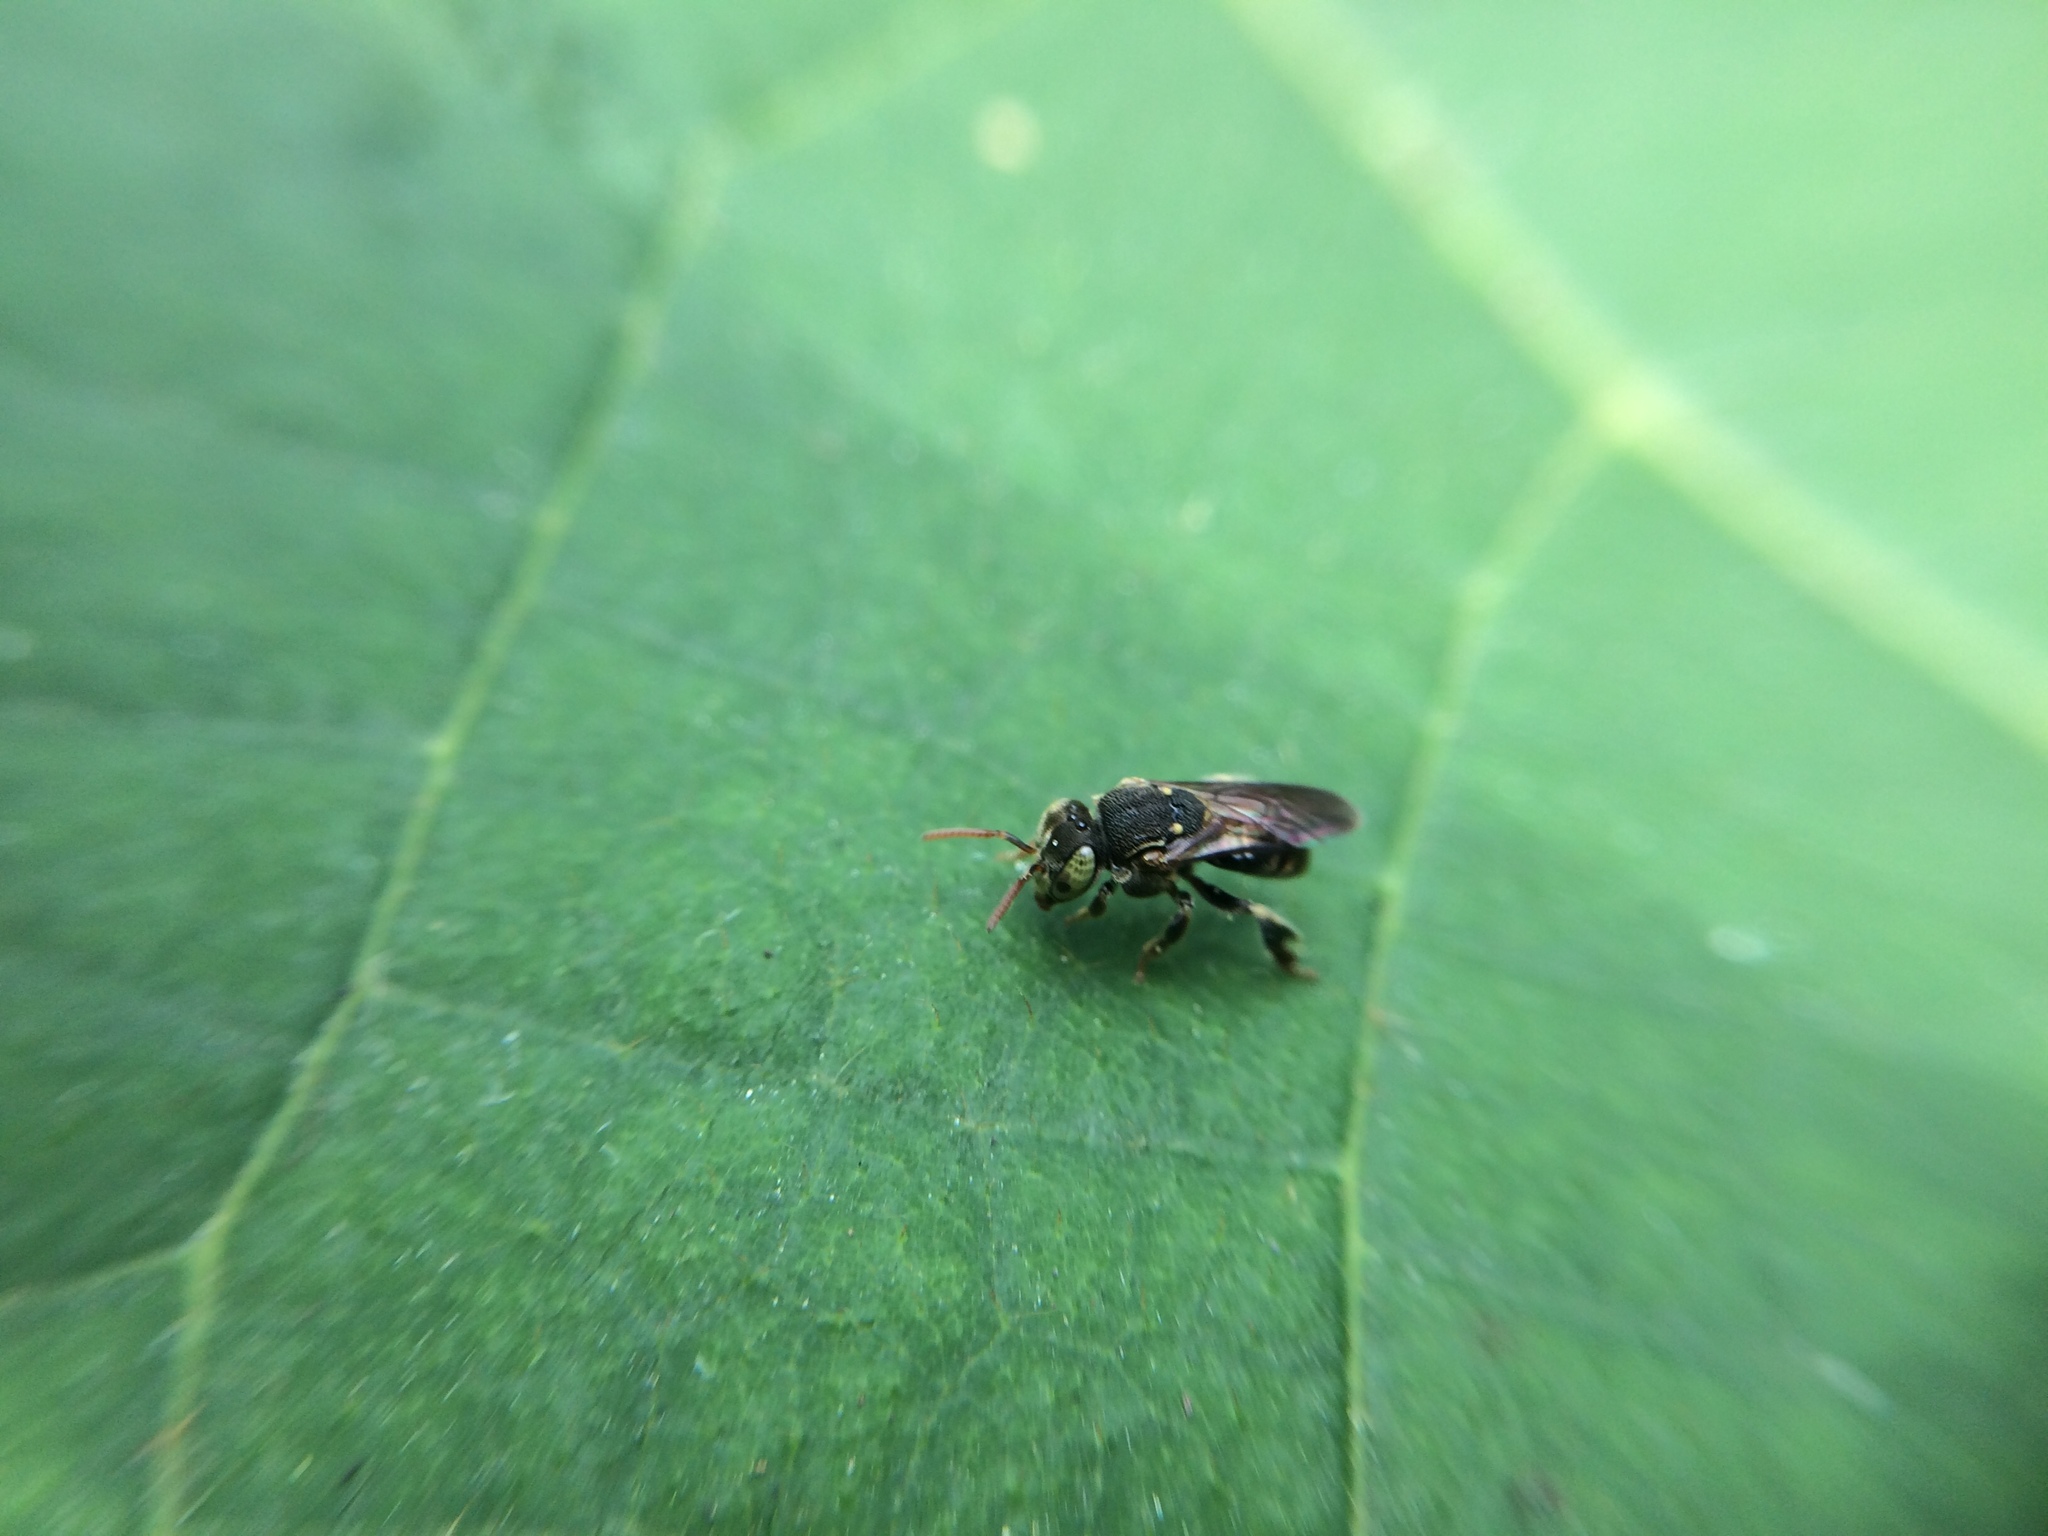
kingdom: Animalia
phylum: Arthropoda
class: Insecta
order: Hymenoptera
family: Apidae
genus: Nannotrigona
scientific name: Nannotrigona perilampoides
